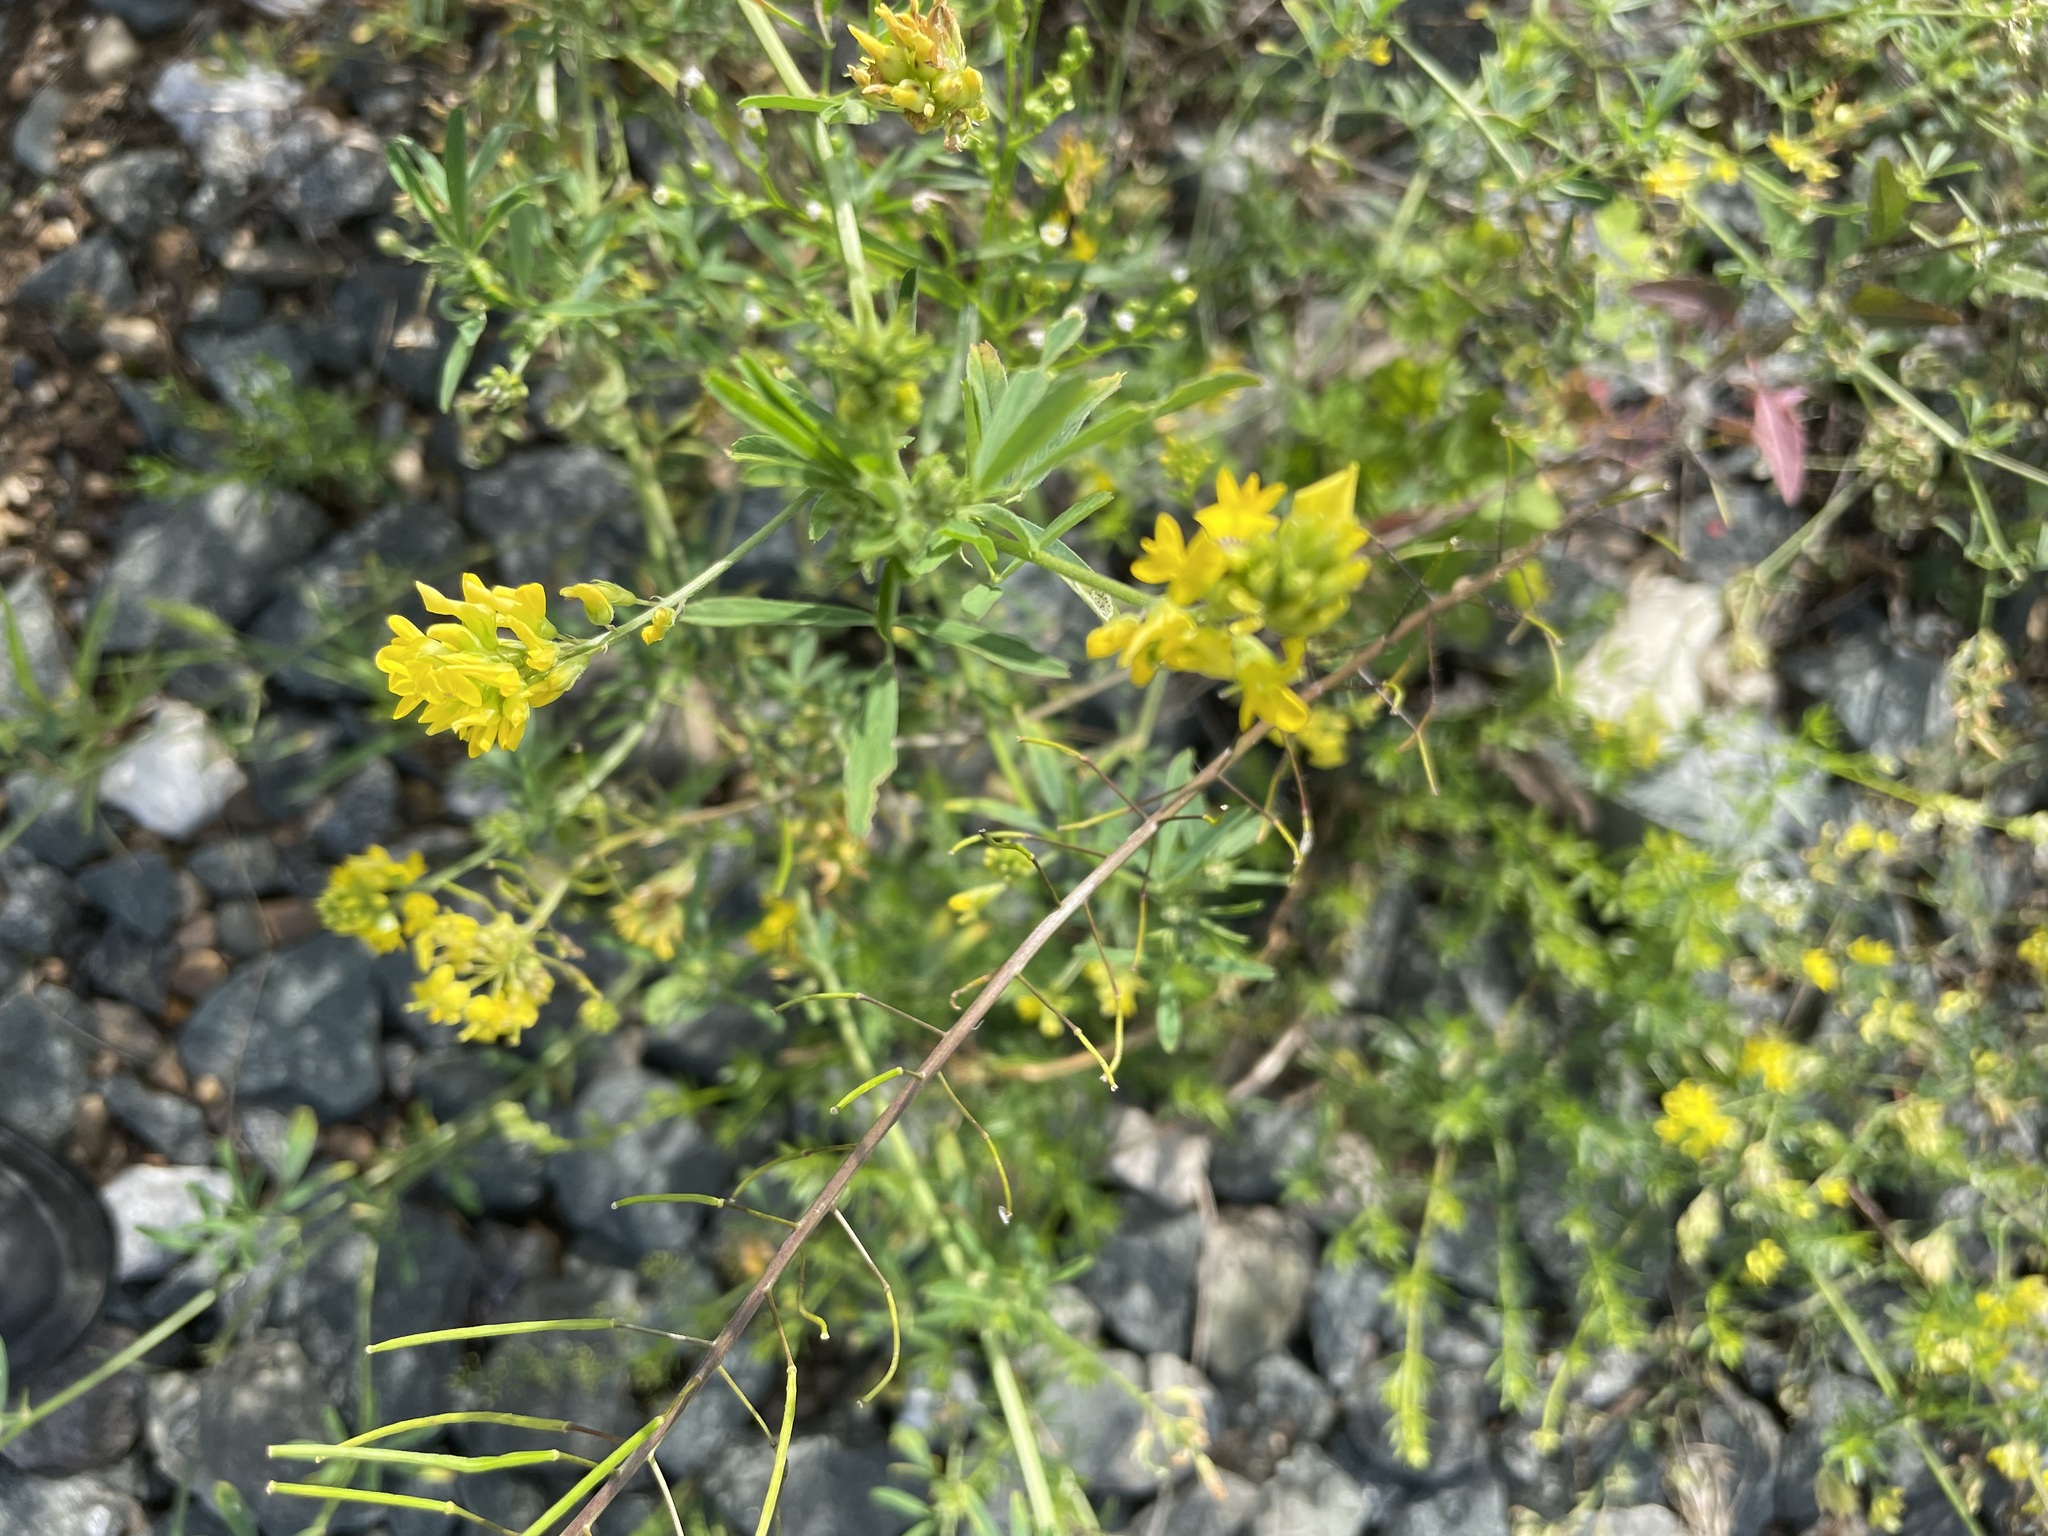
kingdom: Plantae
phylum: Tracheophyta
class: Magnoliopsida
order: Fabales
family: Fabaceae
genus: Medicago
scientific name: Medicago falcata
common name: Sickle medick
